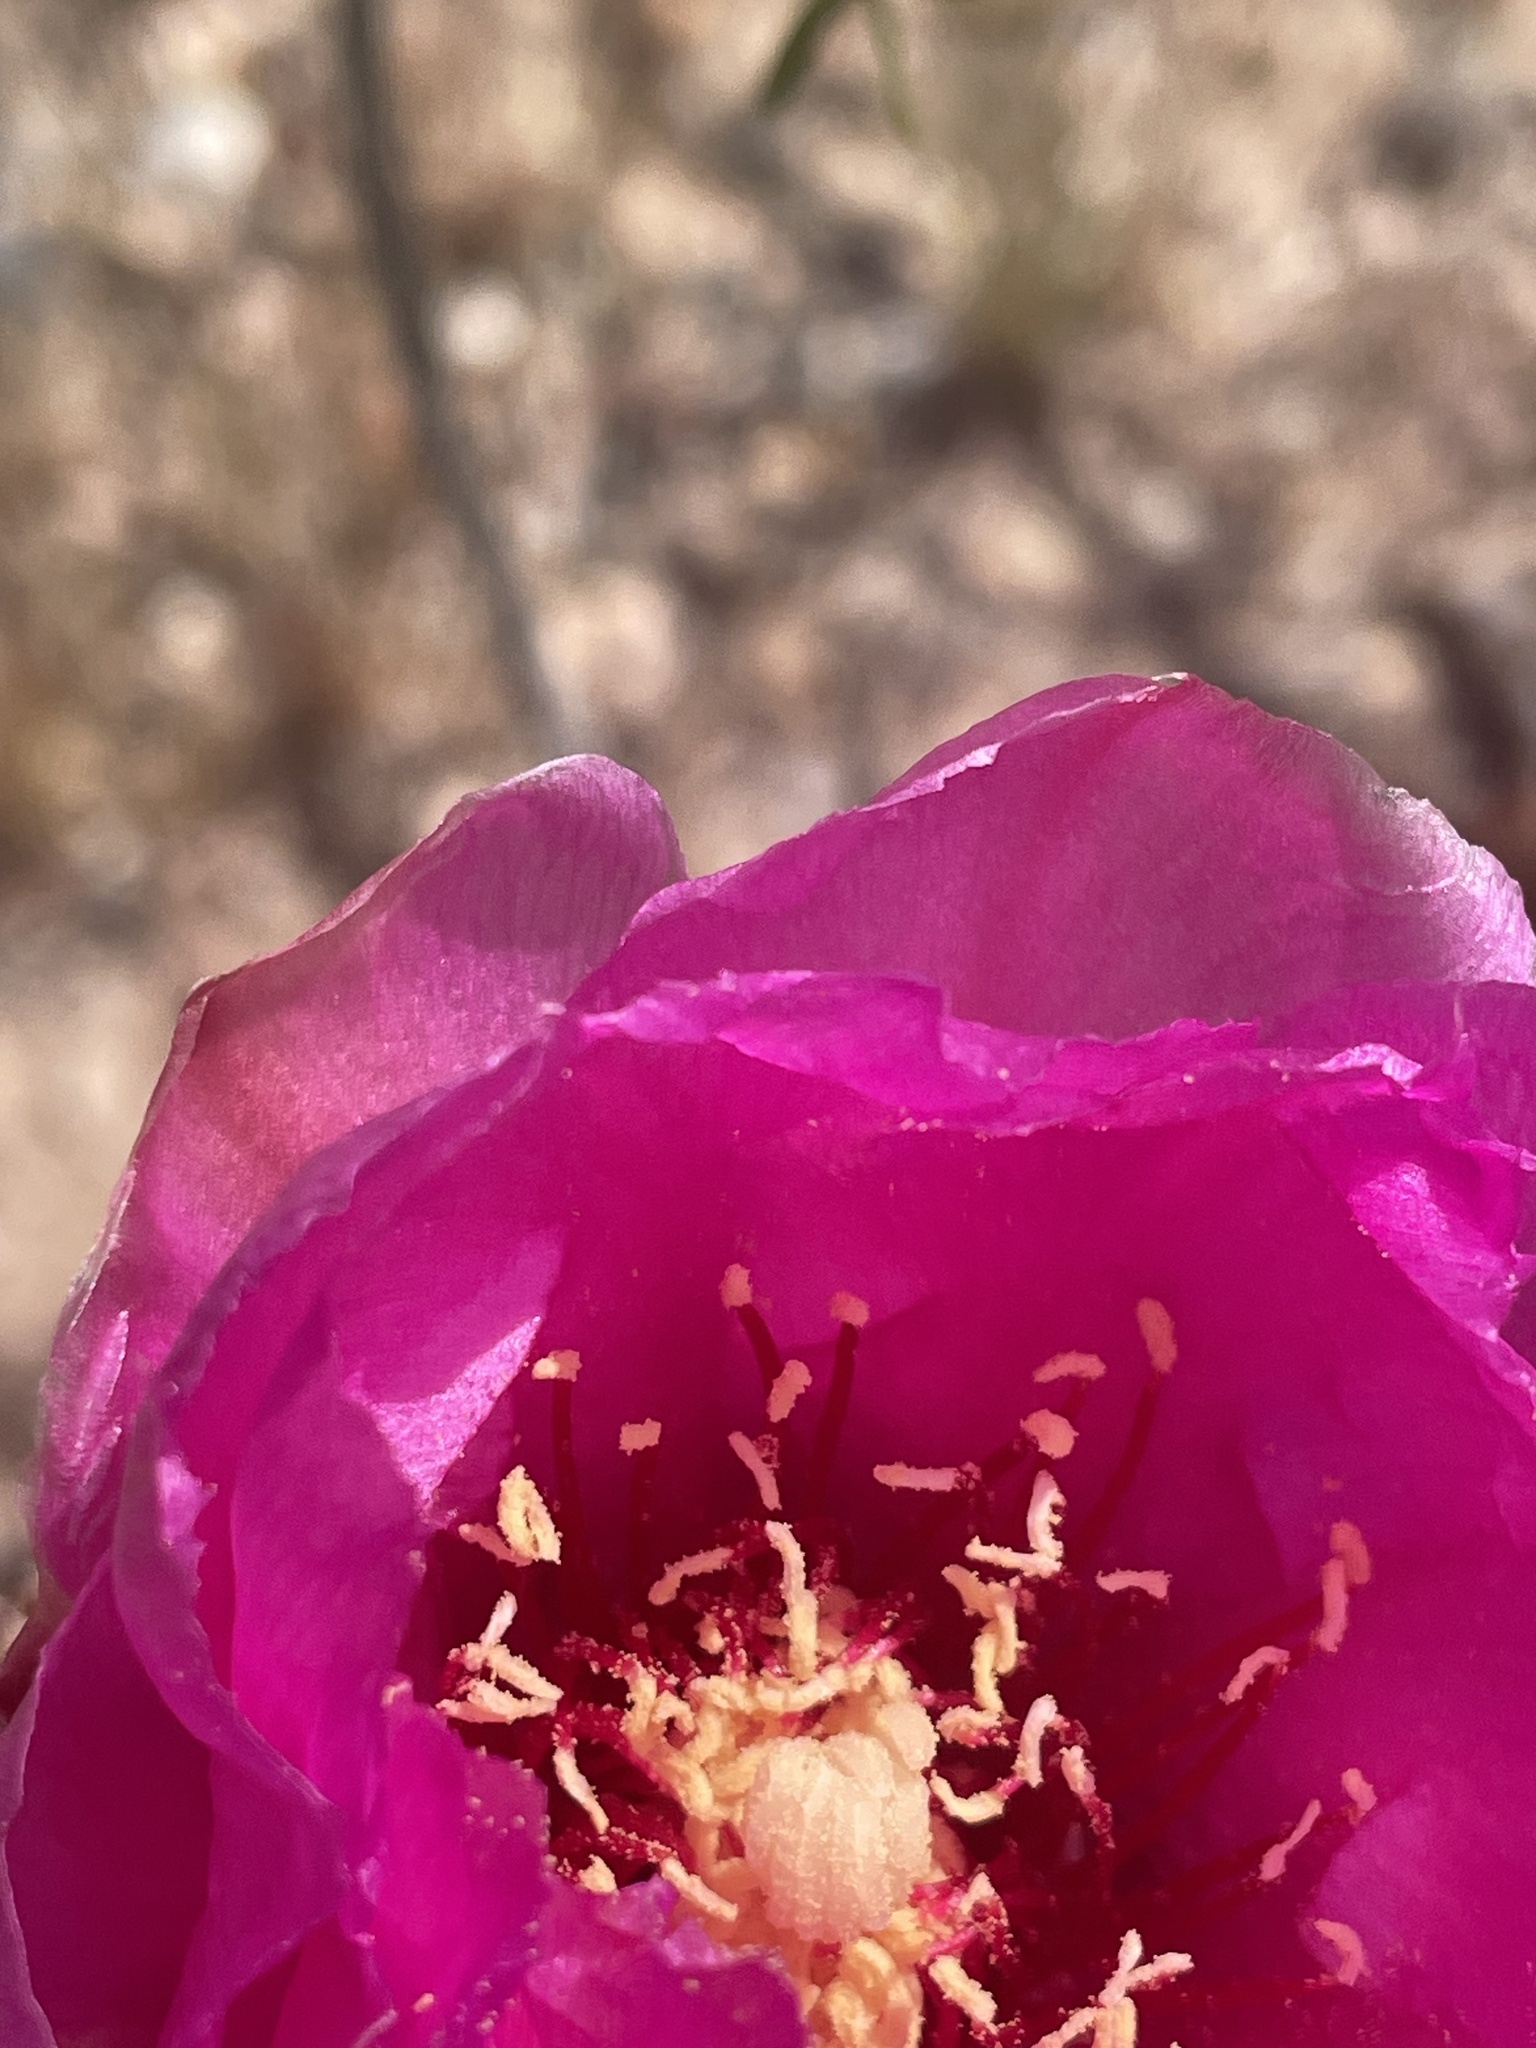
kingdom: Plantae
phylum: Tracheophyta
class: Magnoliopsida
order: Caryophyllales
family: Cactaceae
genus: Opuntia
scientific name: Opuntia basilaris
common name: Beavertail prickly-pear
